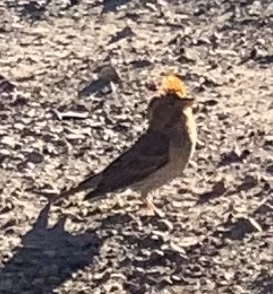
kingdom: Animalia
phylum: Chordata
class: Aves
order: Passeriformes
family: Fringillidae
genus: Haemorhous
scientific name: Haemorhous cassinii
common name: Cassin's finch
